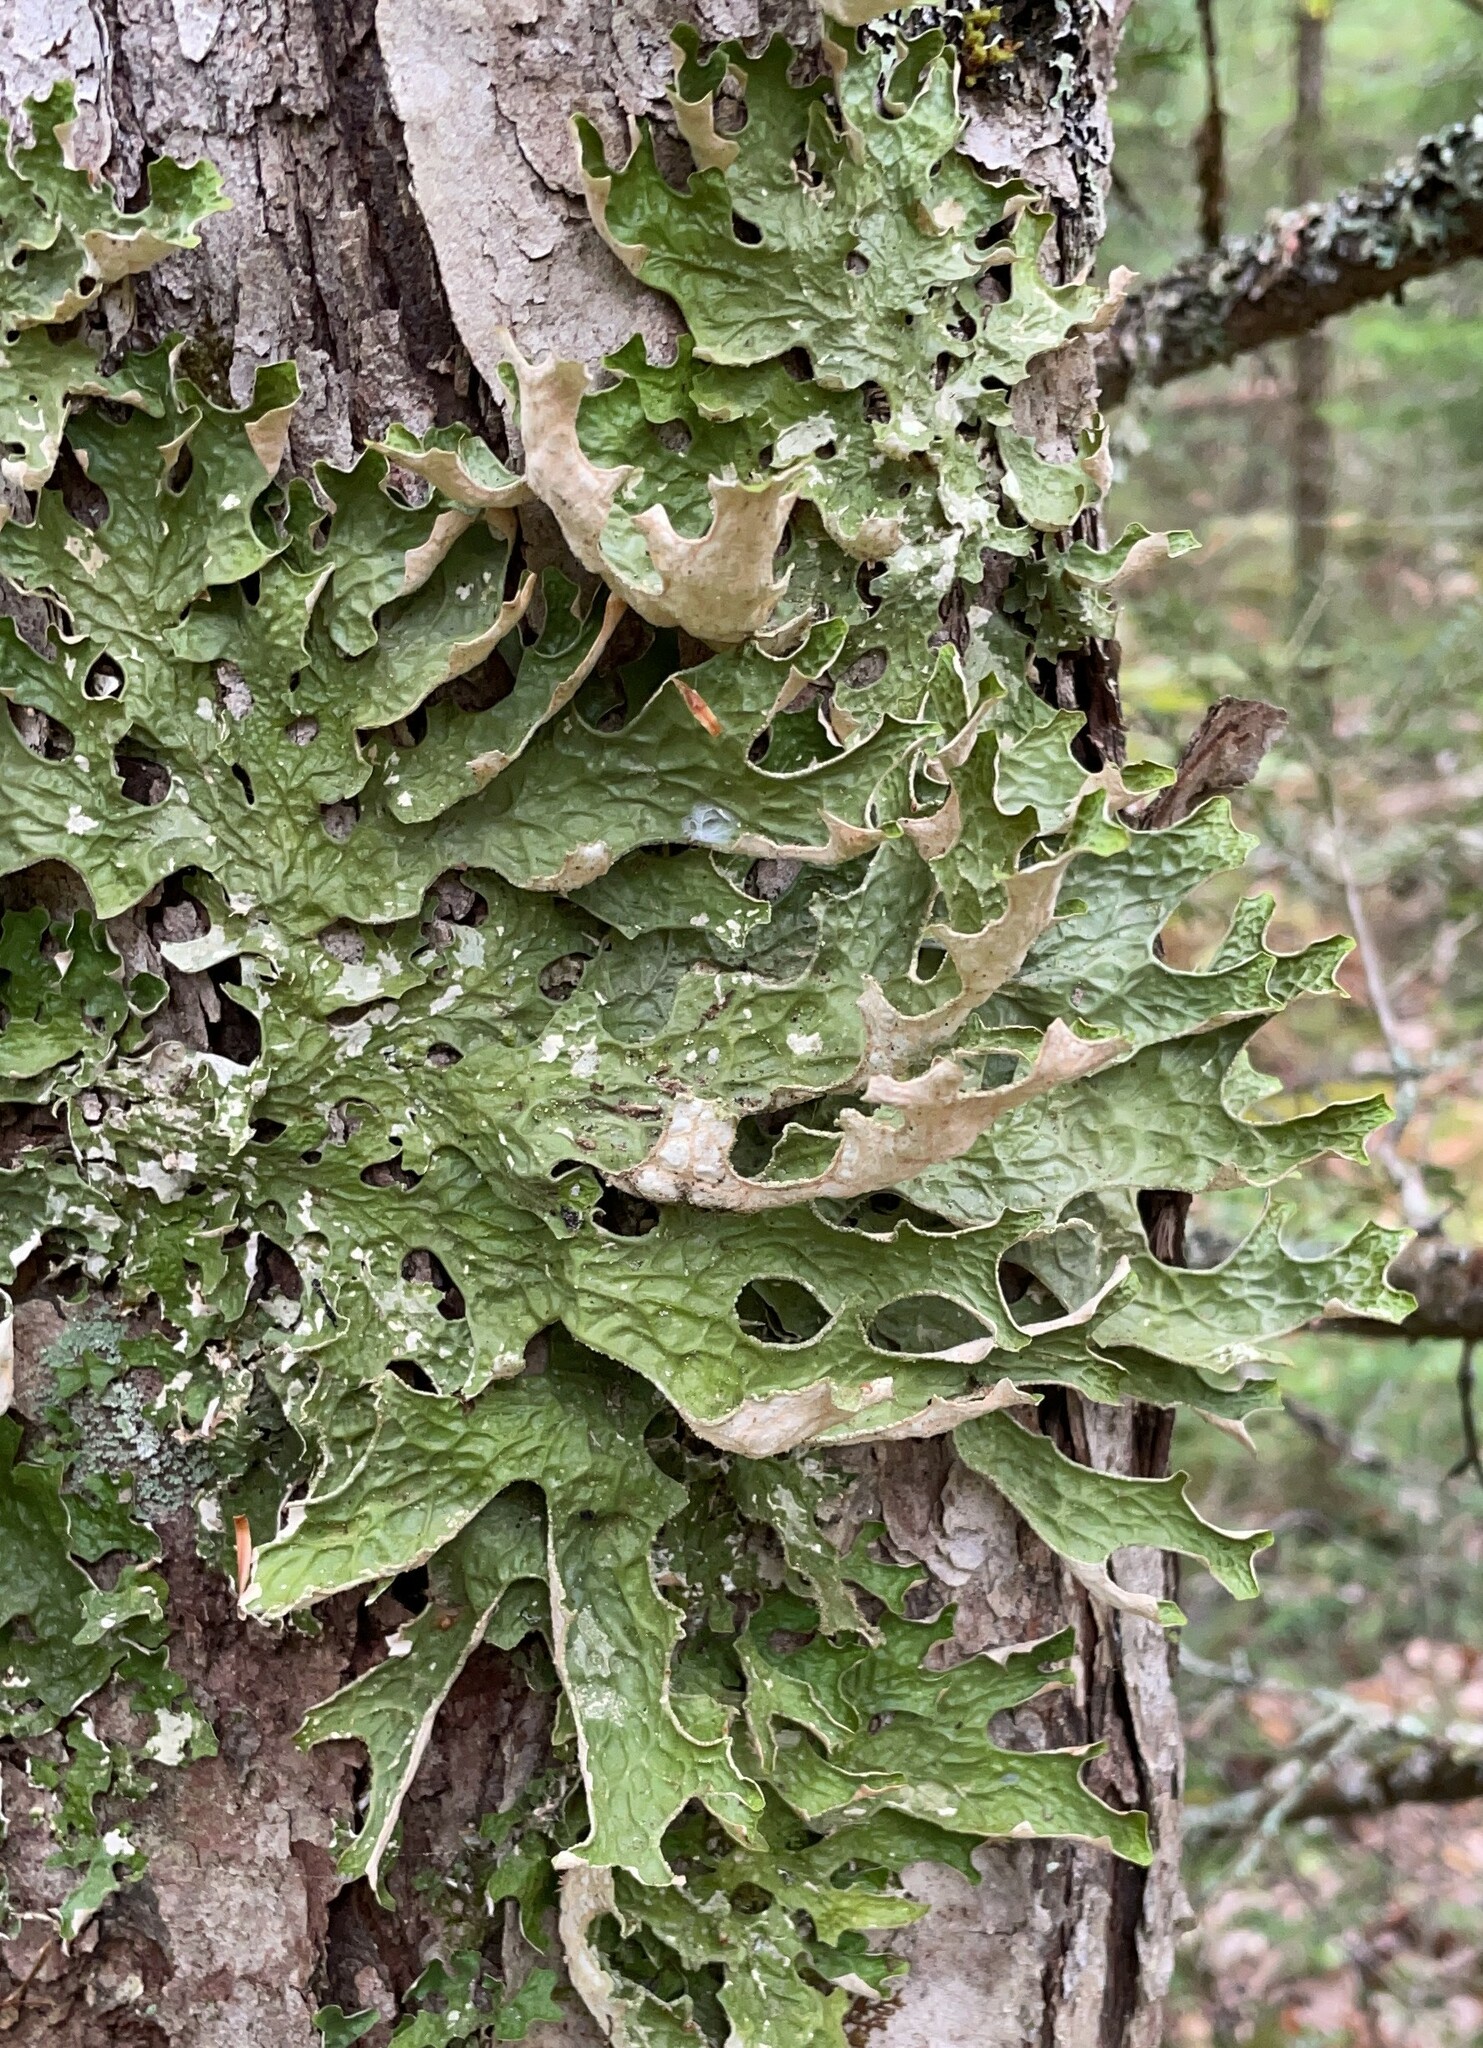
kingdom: Fungi
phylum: Ascomycota
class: Lecanoromycetes
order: Peltigerales
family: Lobariaceae
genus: Lobaria
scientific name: Lobaria pulmonaria
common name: Lungwort
